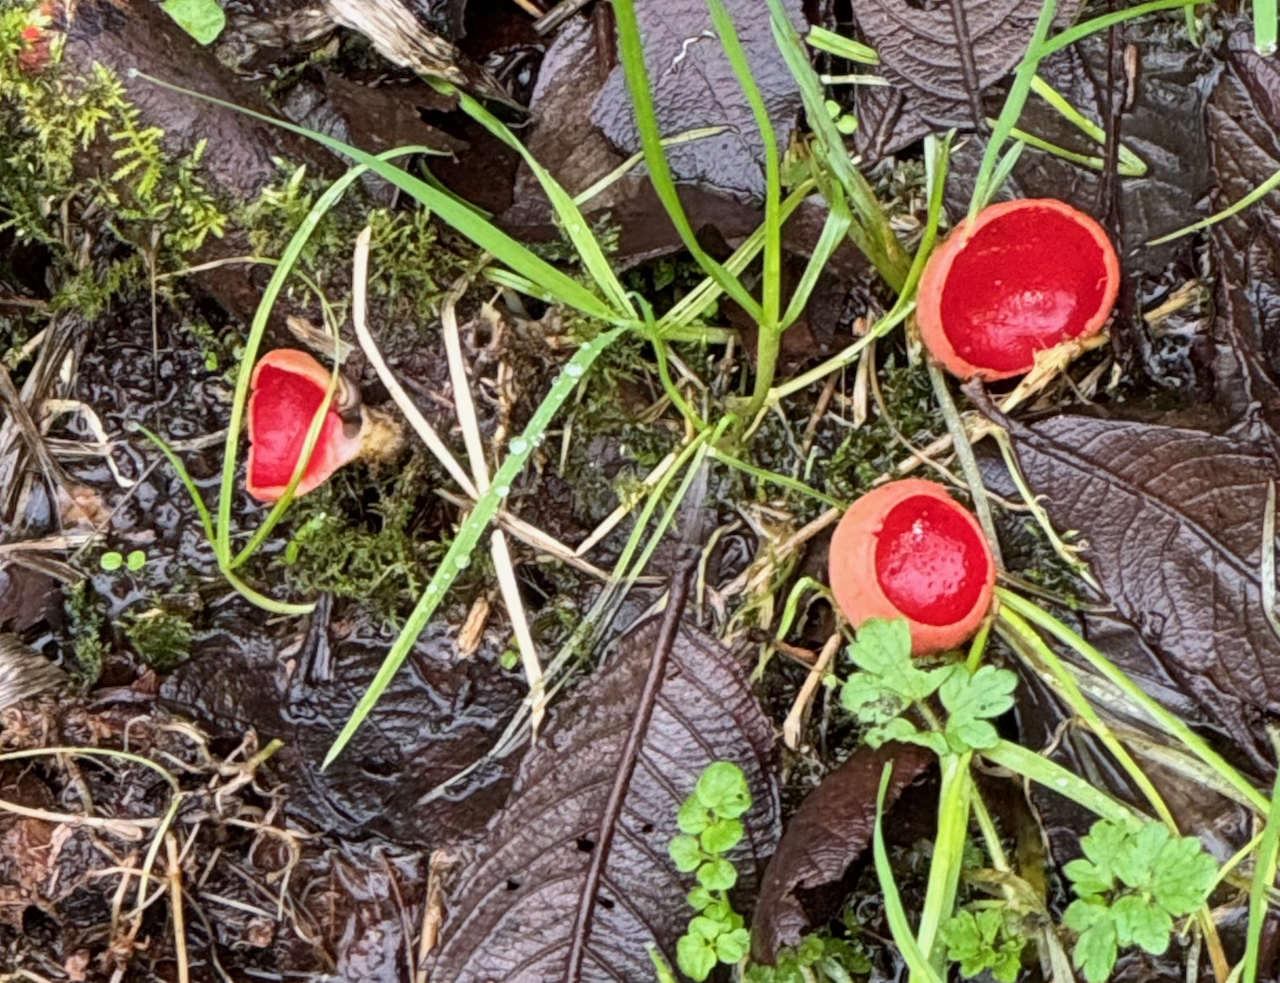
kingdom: Fungi
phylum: Ascomycota
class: Pezizomycetes
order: Pezizales
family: Sarcoscyphaceae
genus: Sarcoscypha
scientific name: Sarcoscypha
